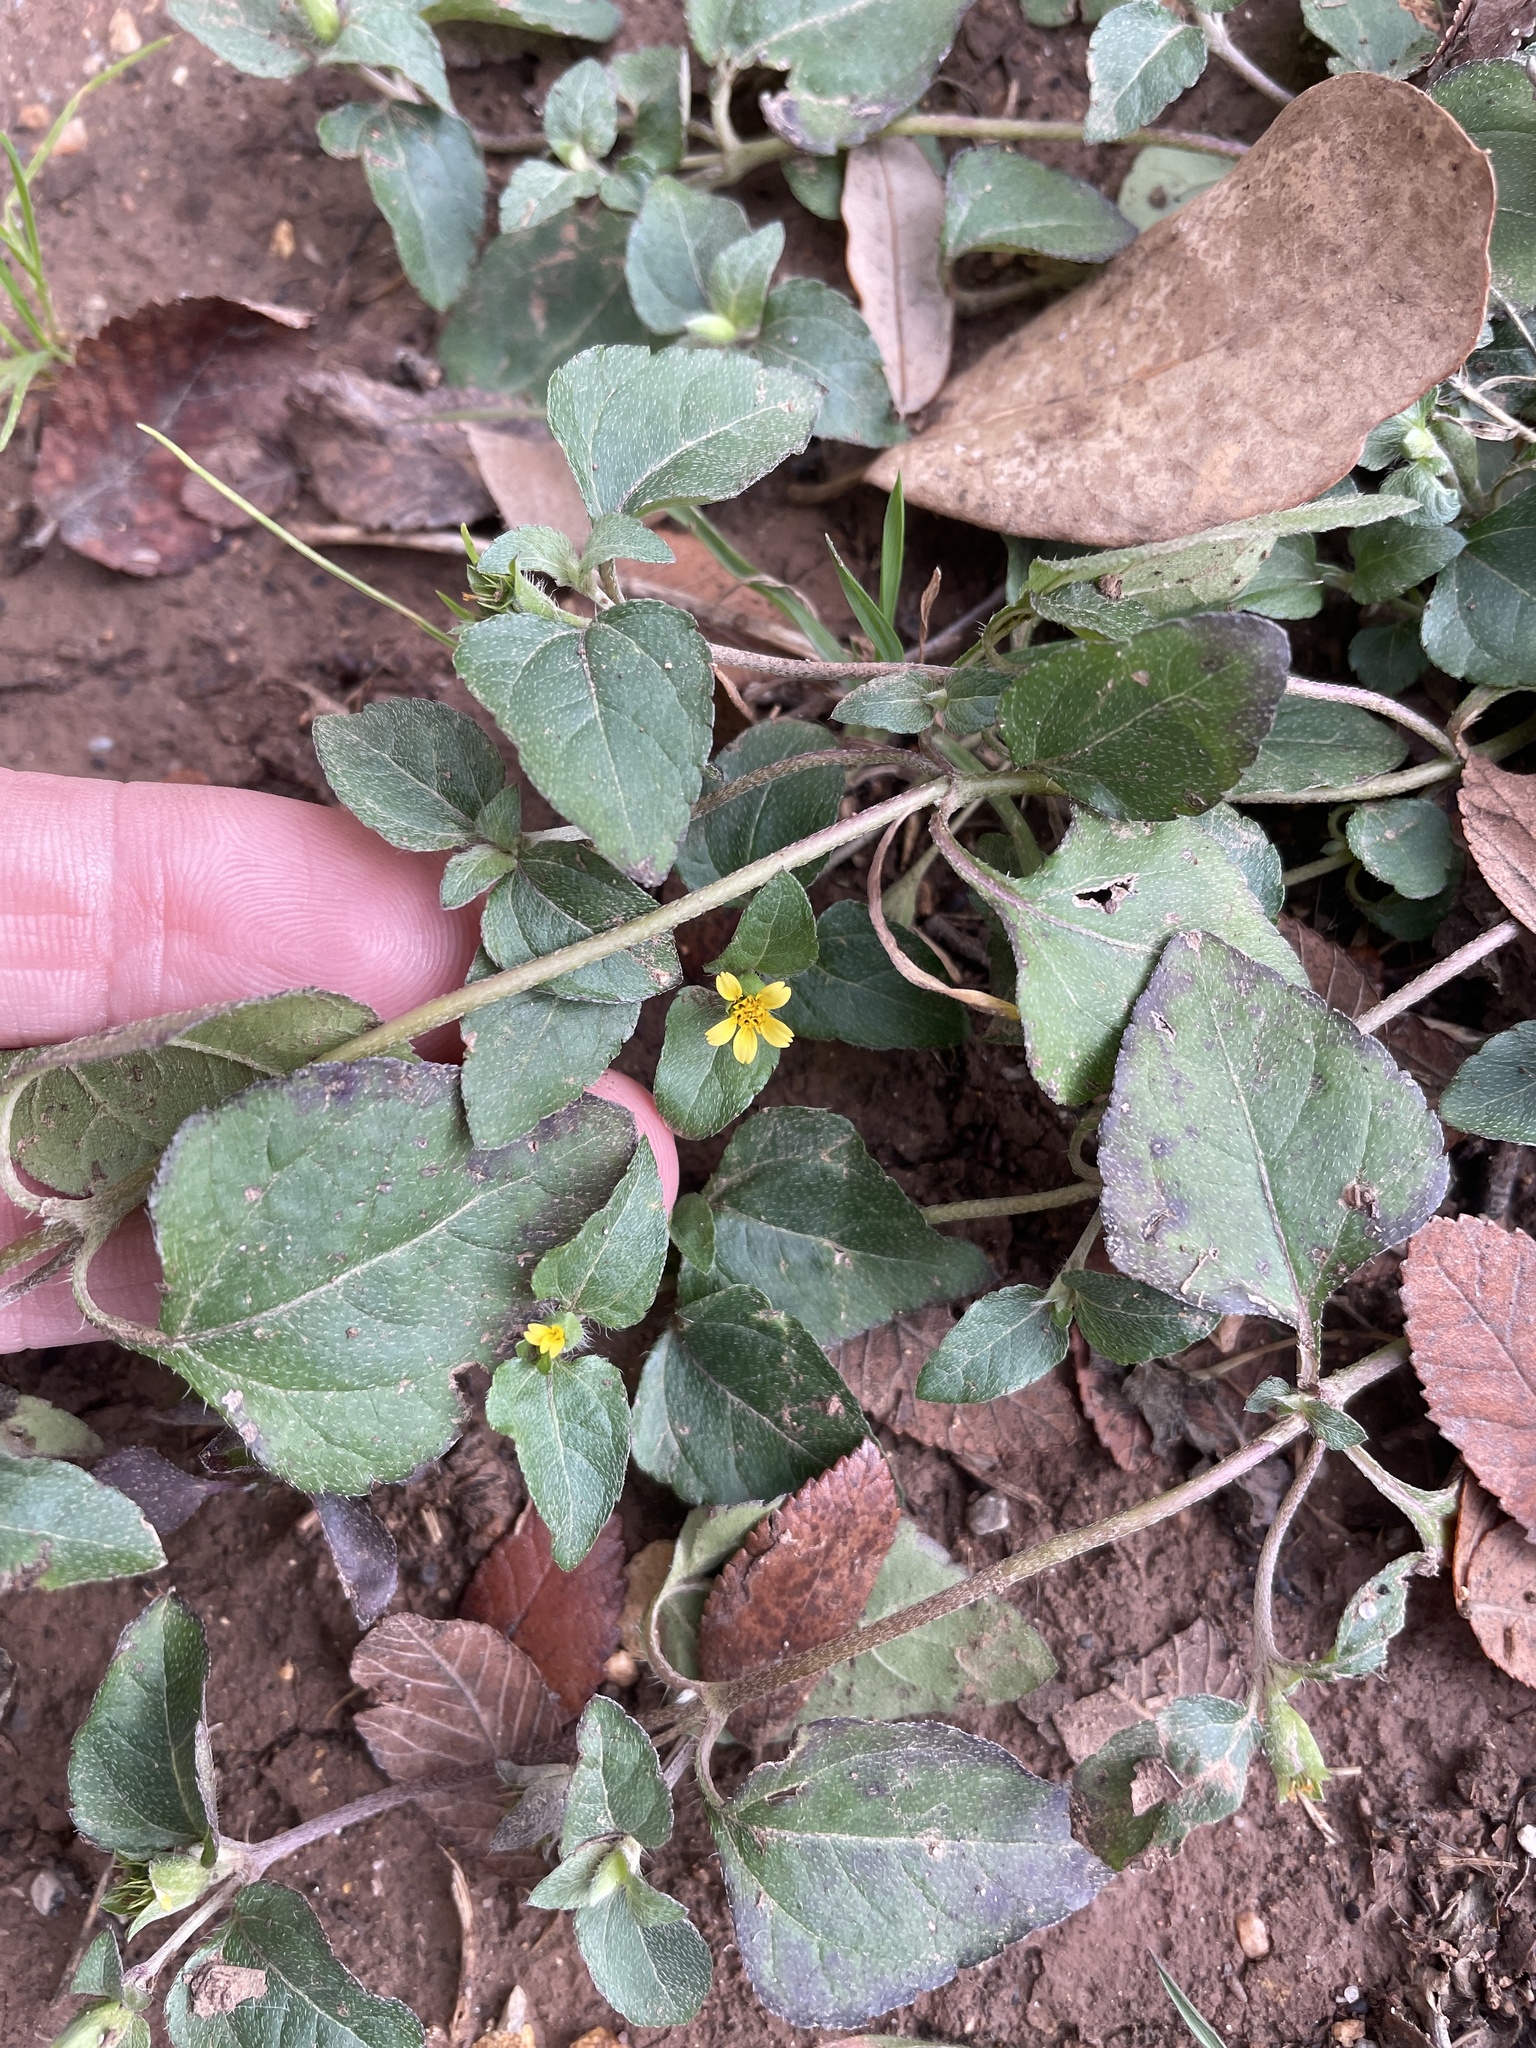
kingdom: Plantae
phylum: Tracheophyta
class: Magnoliopsida
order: Asterales
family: Asteraceae
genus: Calyptocarpus
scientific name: Calyptocarpus vialis
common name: Straggler daisy
